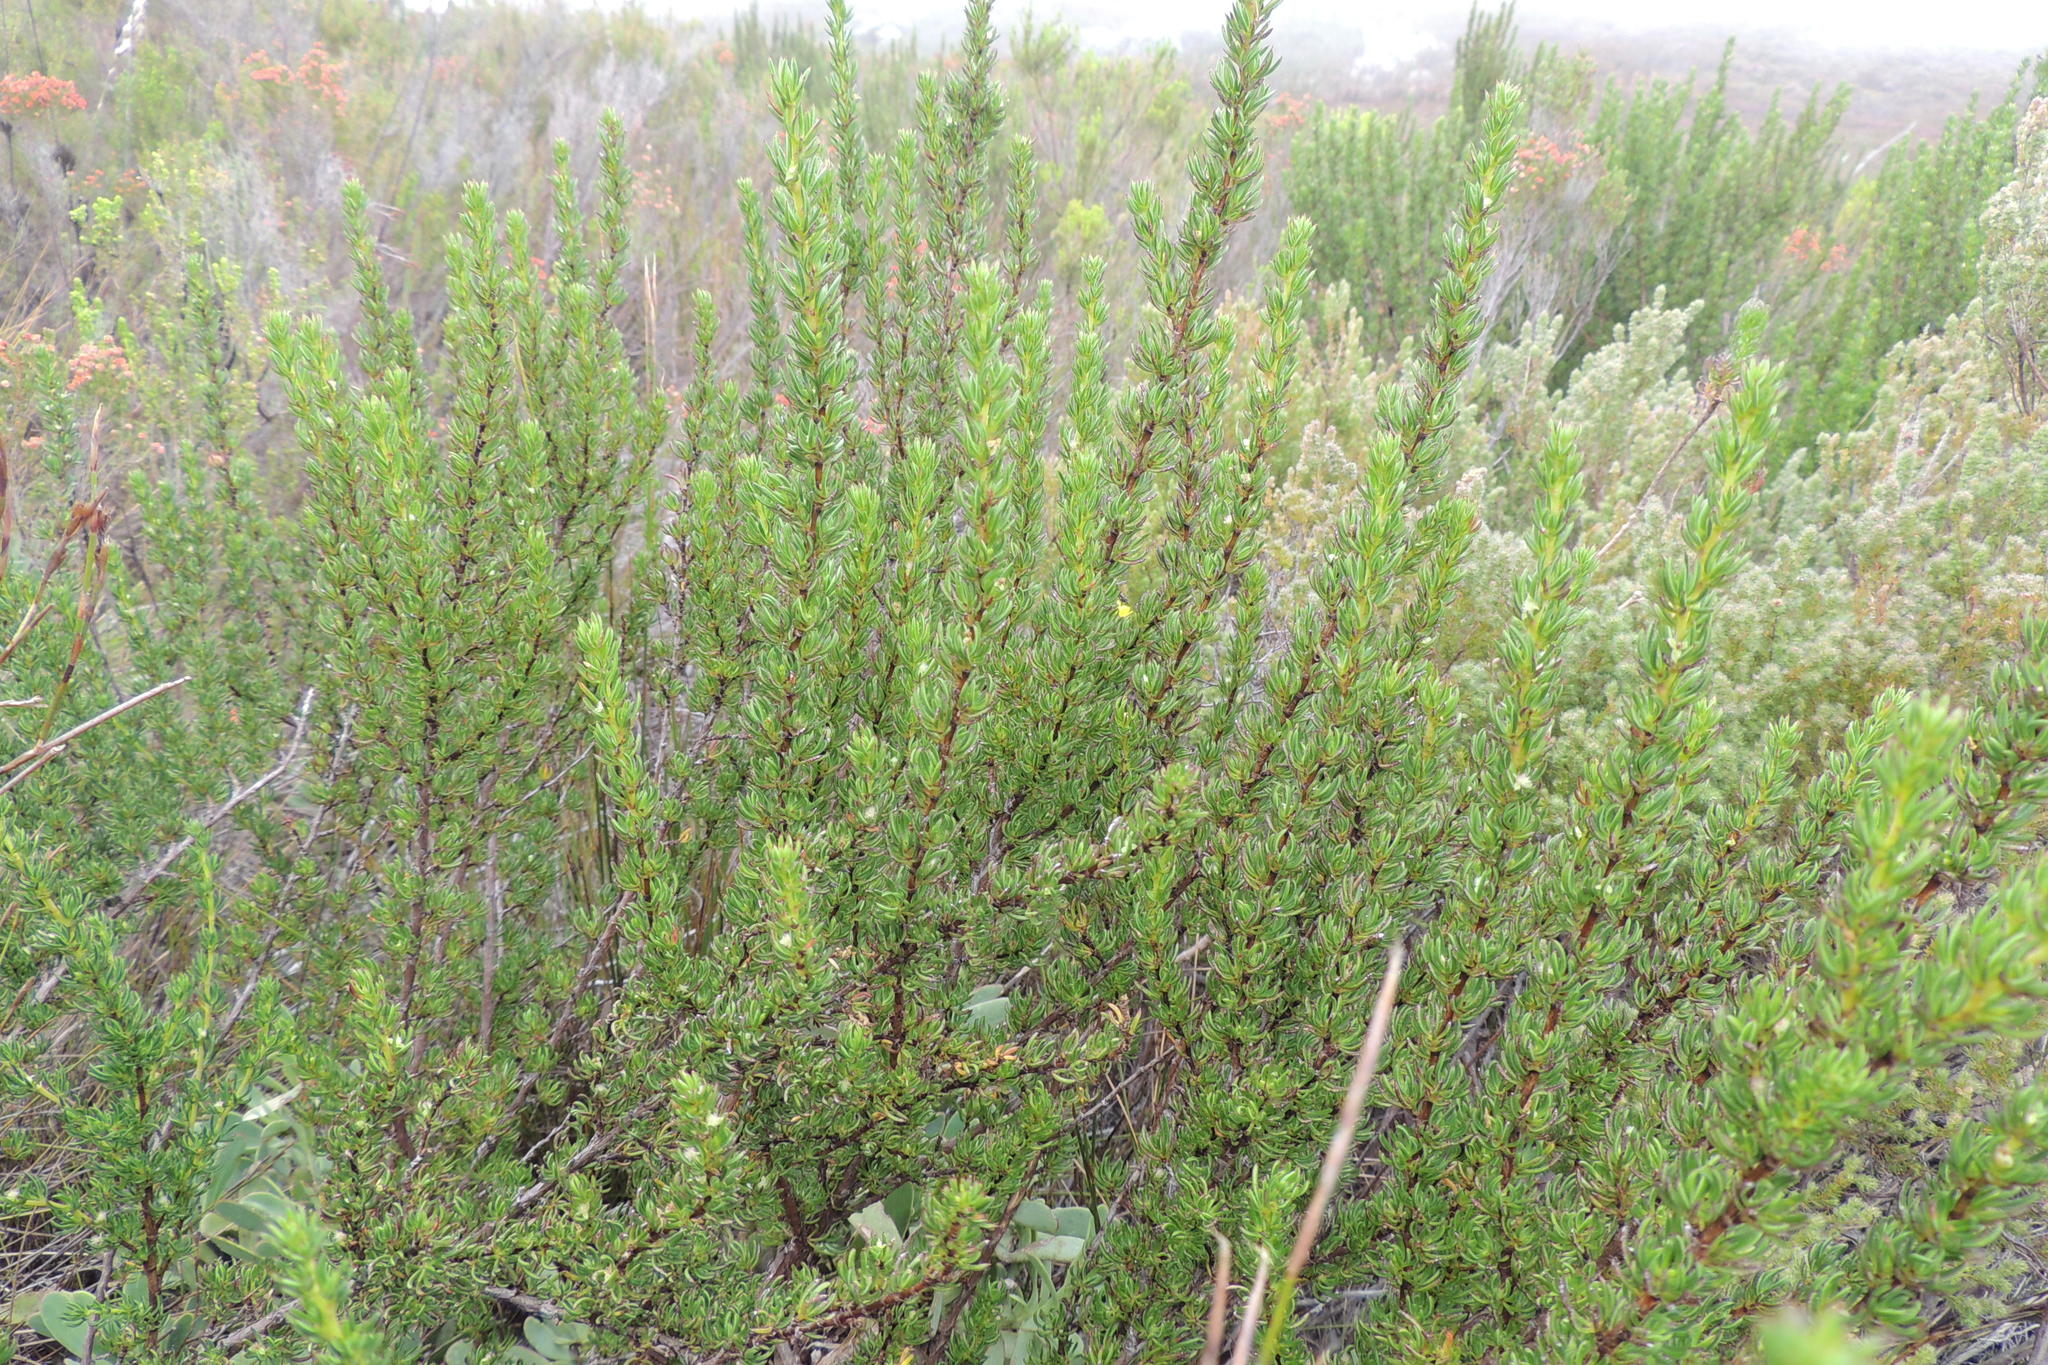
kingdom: Plantae
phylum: Tracheophyta
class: Magnoliopsida
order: Rosales
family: Rosaceae
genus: Cliffortia
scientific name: Cliffortia densa
